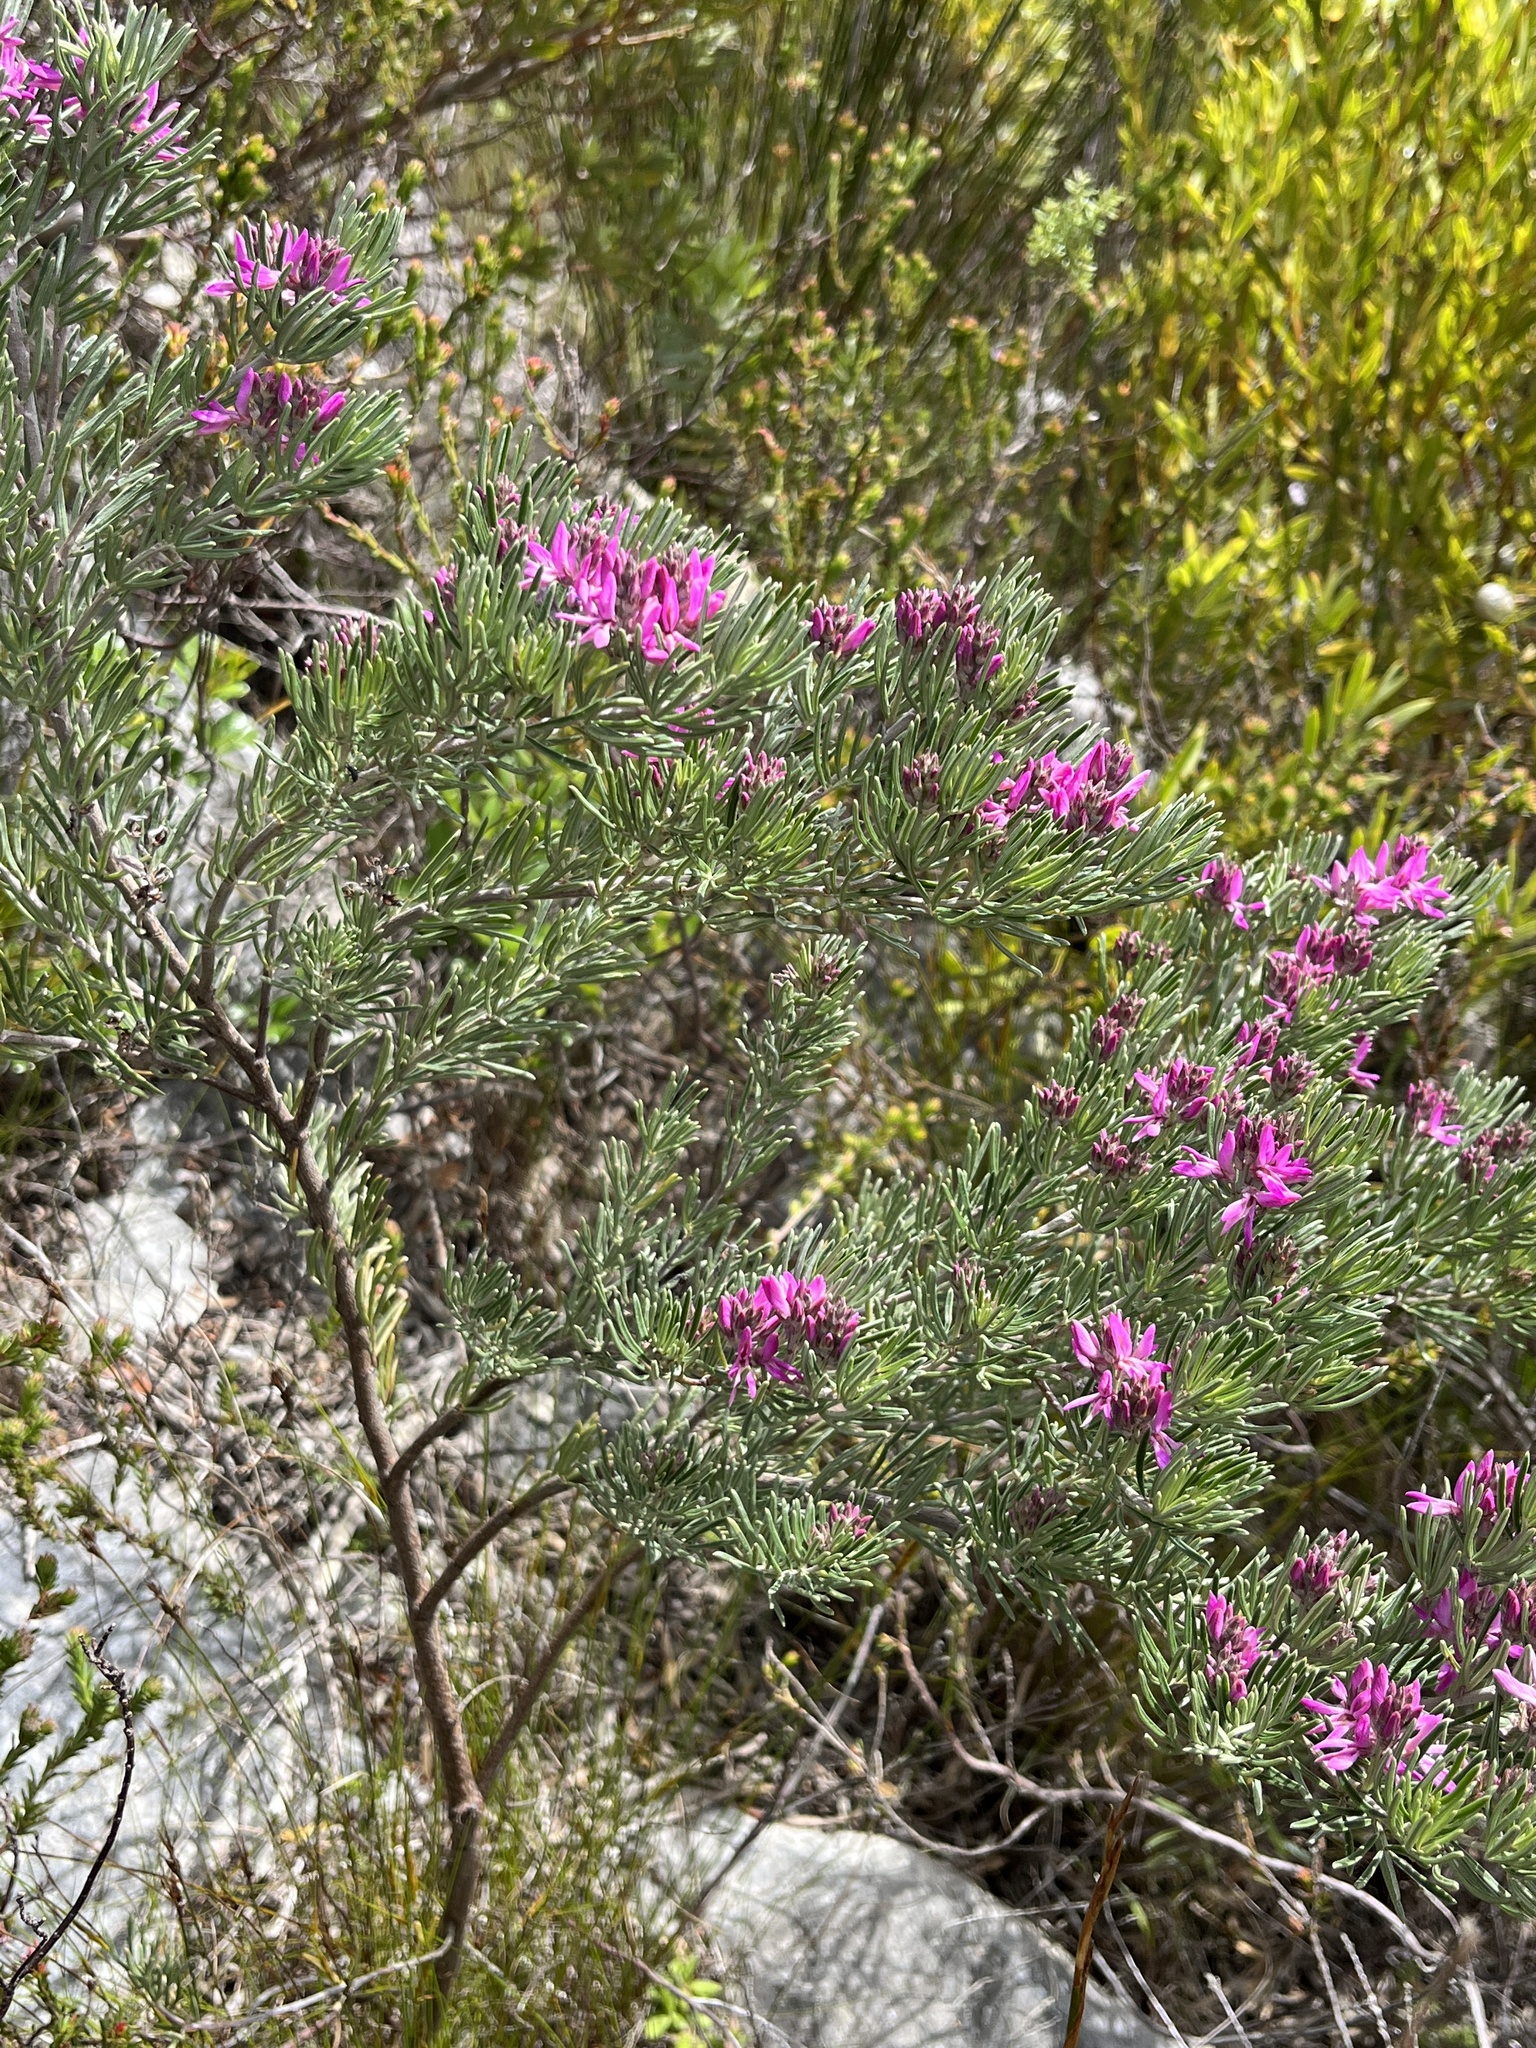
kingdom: Plantae
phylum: Tracheophyta
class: Magnoliopsida
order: Fabales
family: Fabaceae
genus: Indigofera
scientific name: Indigofera
